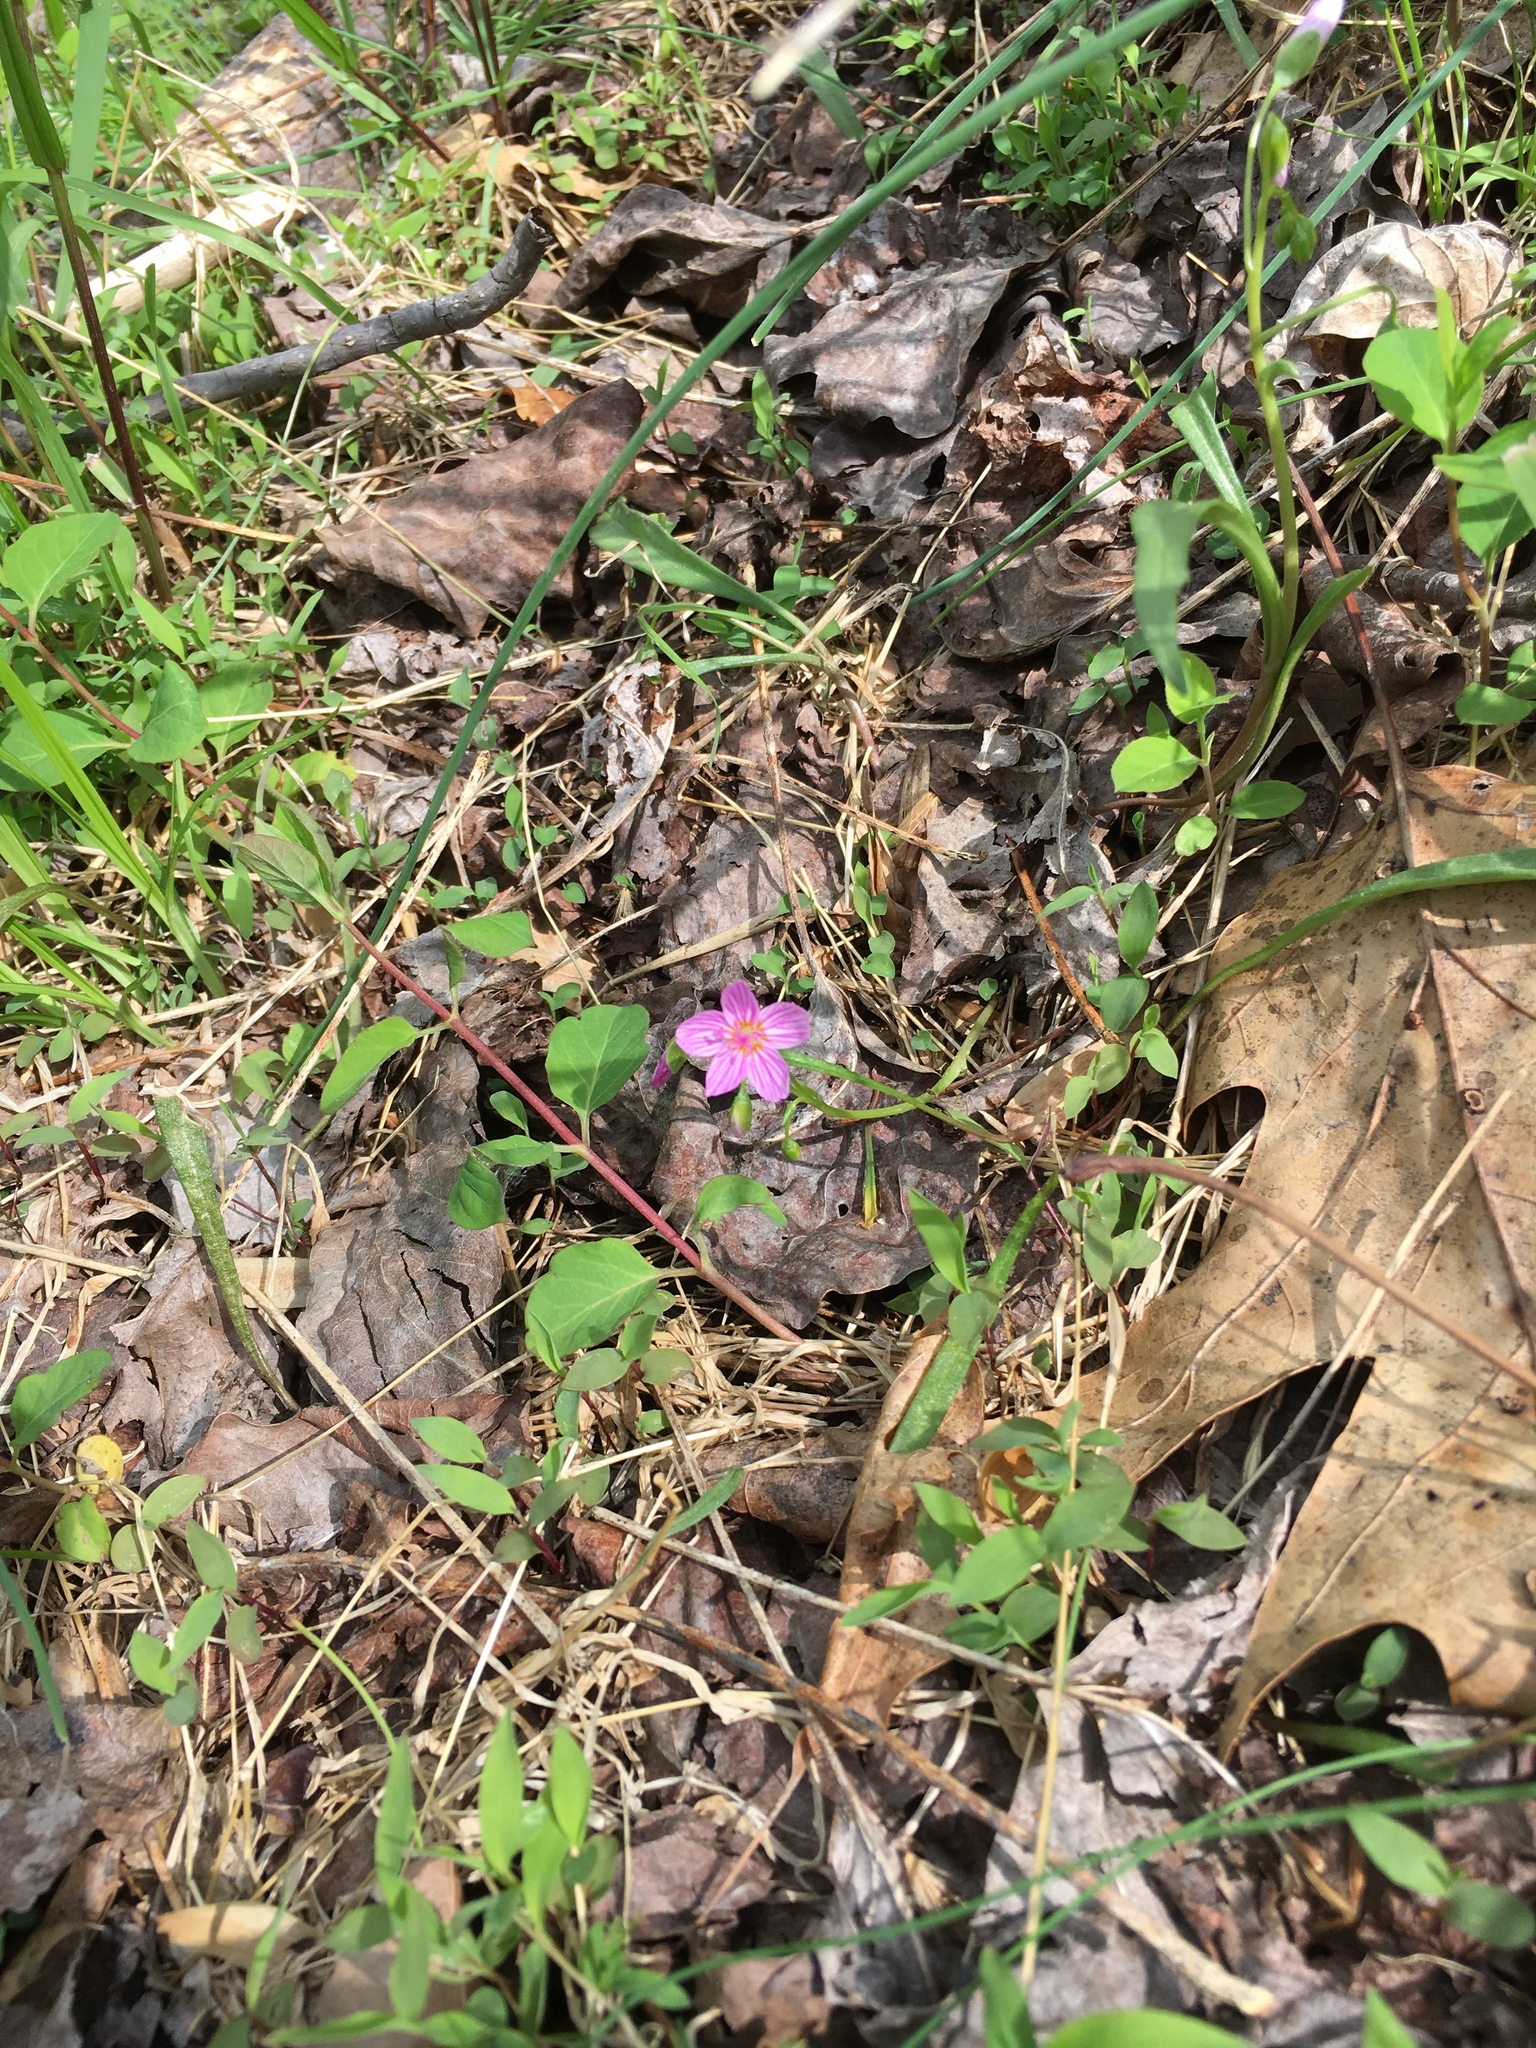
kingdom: Plantae
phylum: Tracheophyta
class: Magnoliopsida
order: Caryophyllales
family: Montiaceae
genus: Claytonia
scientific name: Claytonia virginica
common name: Virginia springbeauty
